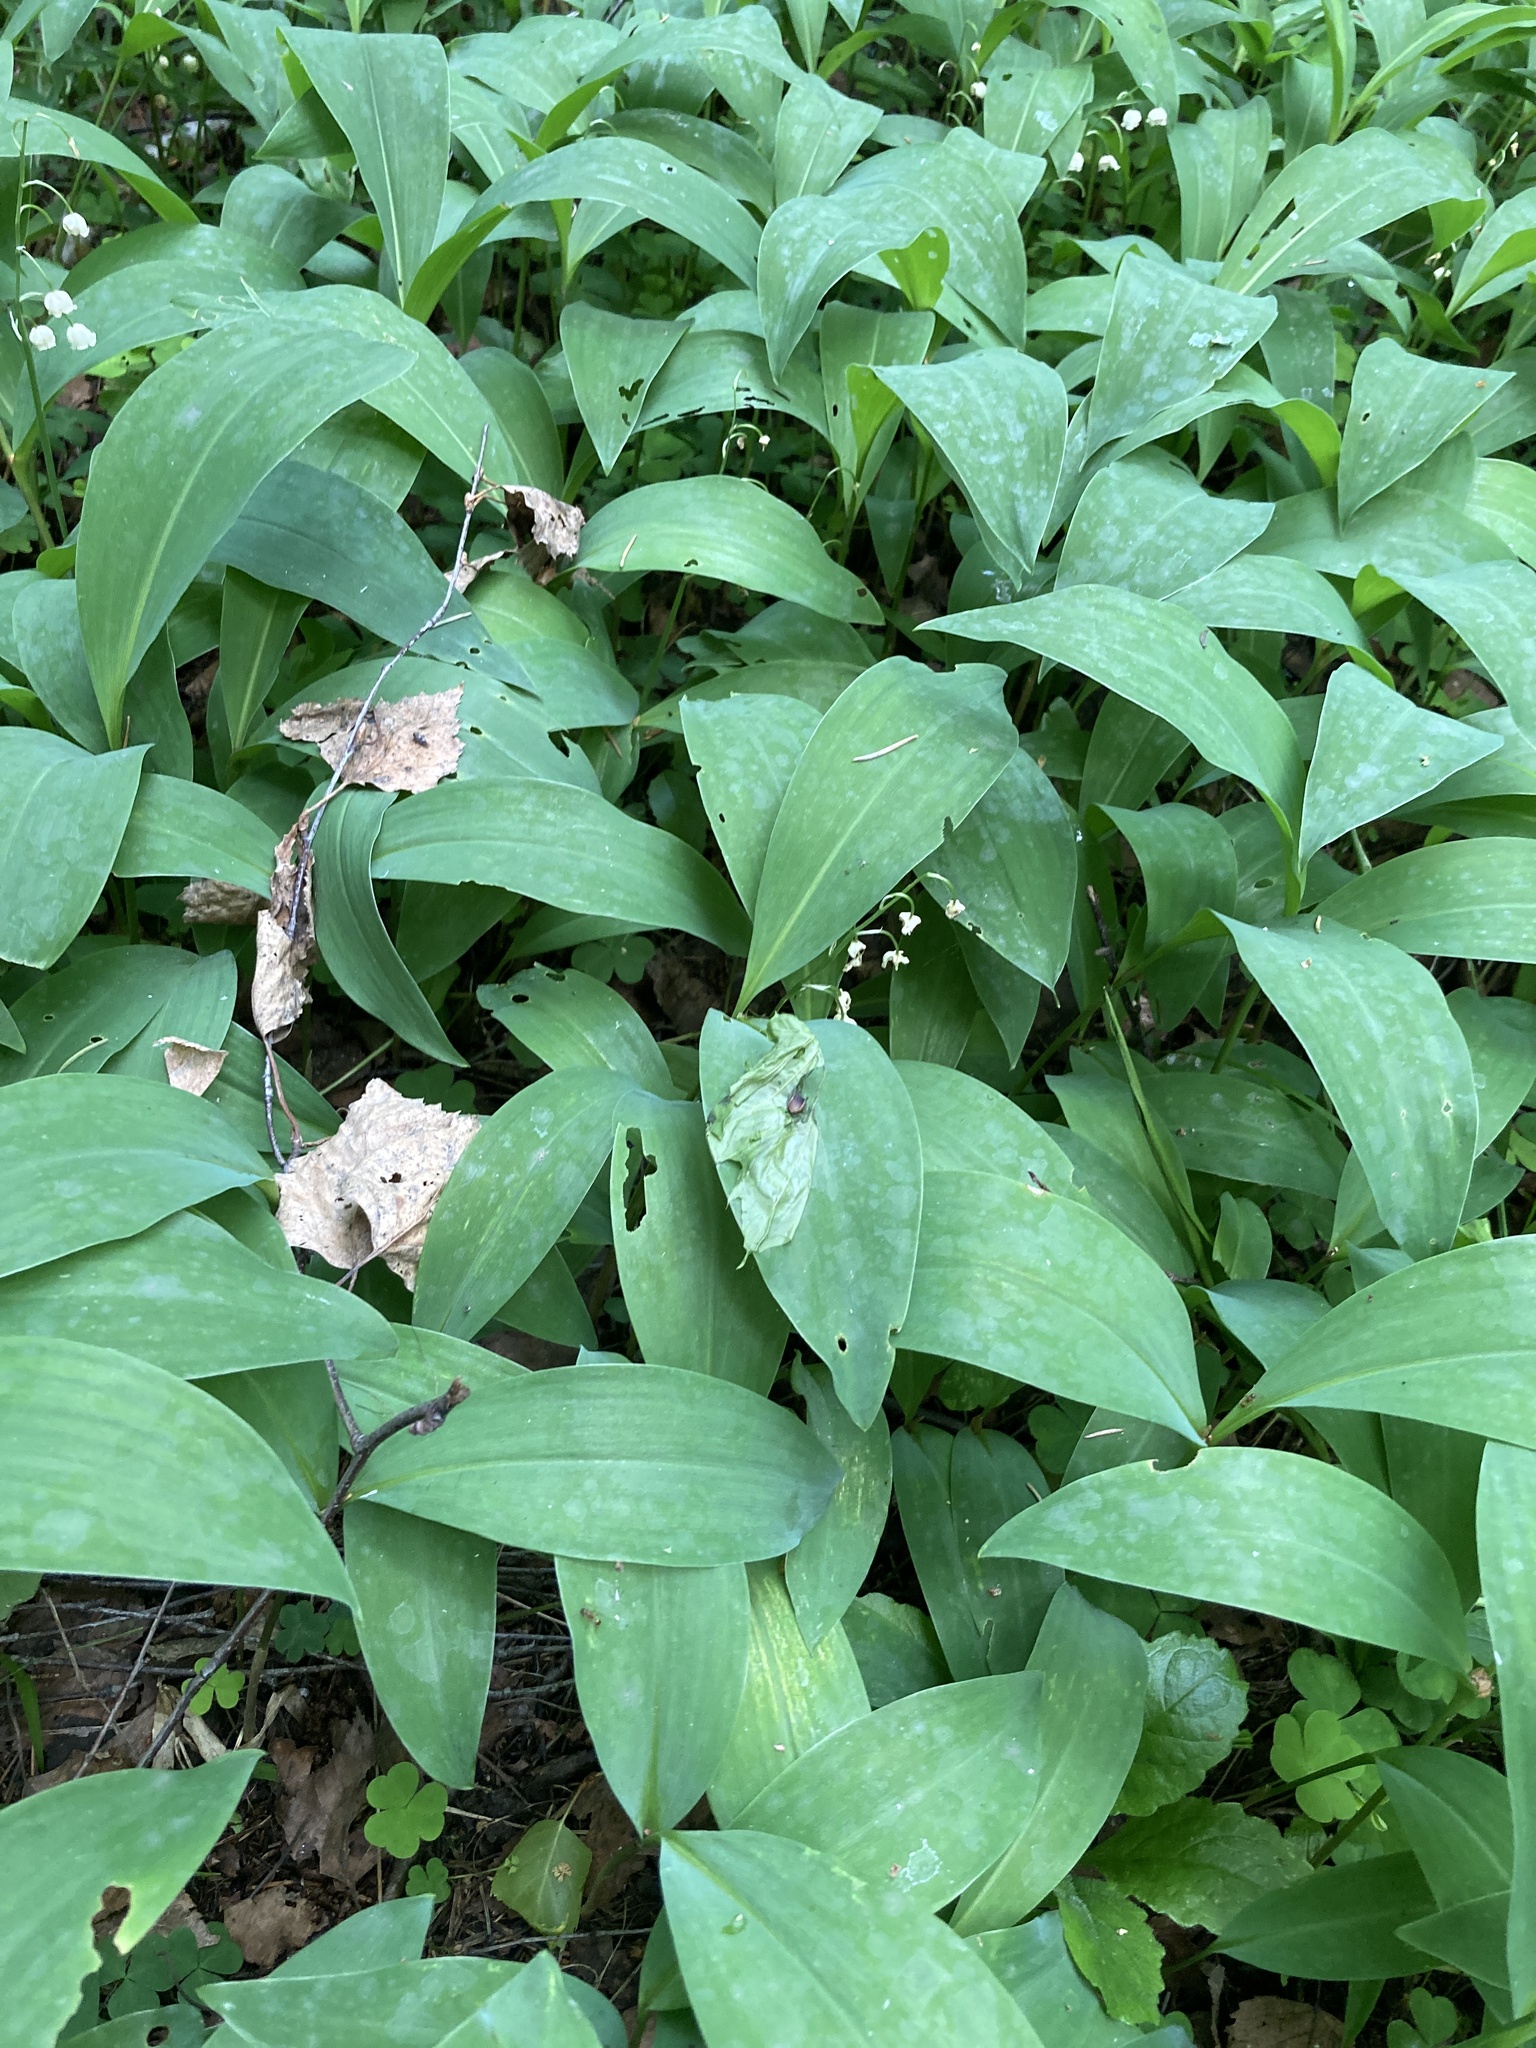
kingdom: Plantae
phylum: Tracheophyta
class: Liliopsida
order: Asparagales
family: Asparagaceae
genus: Convallaria
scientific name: Convallaria majalis
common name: Lily-of-the-valley
